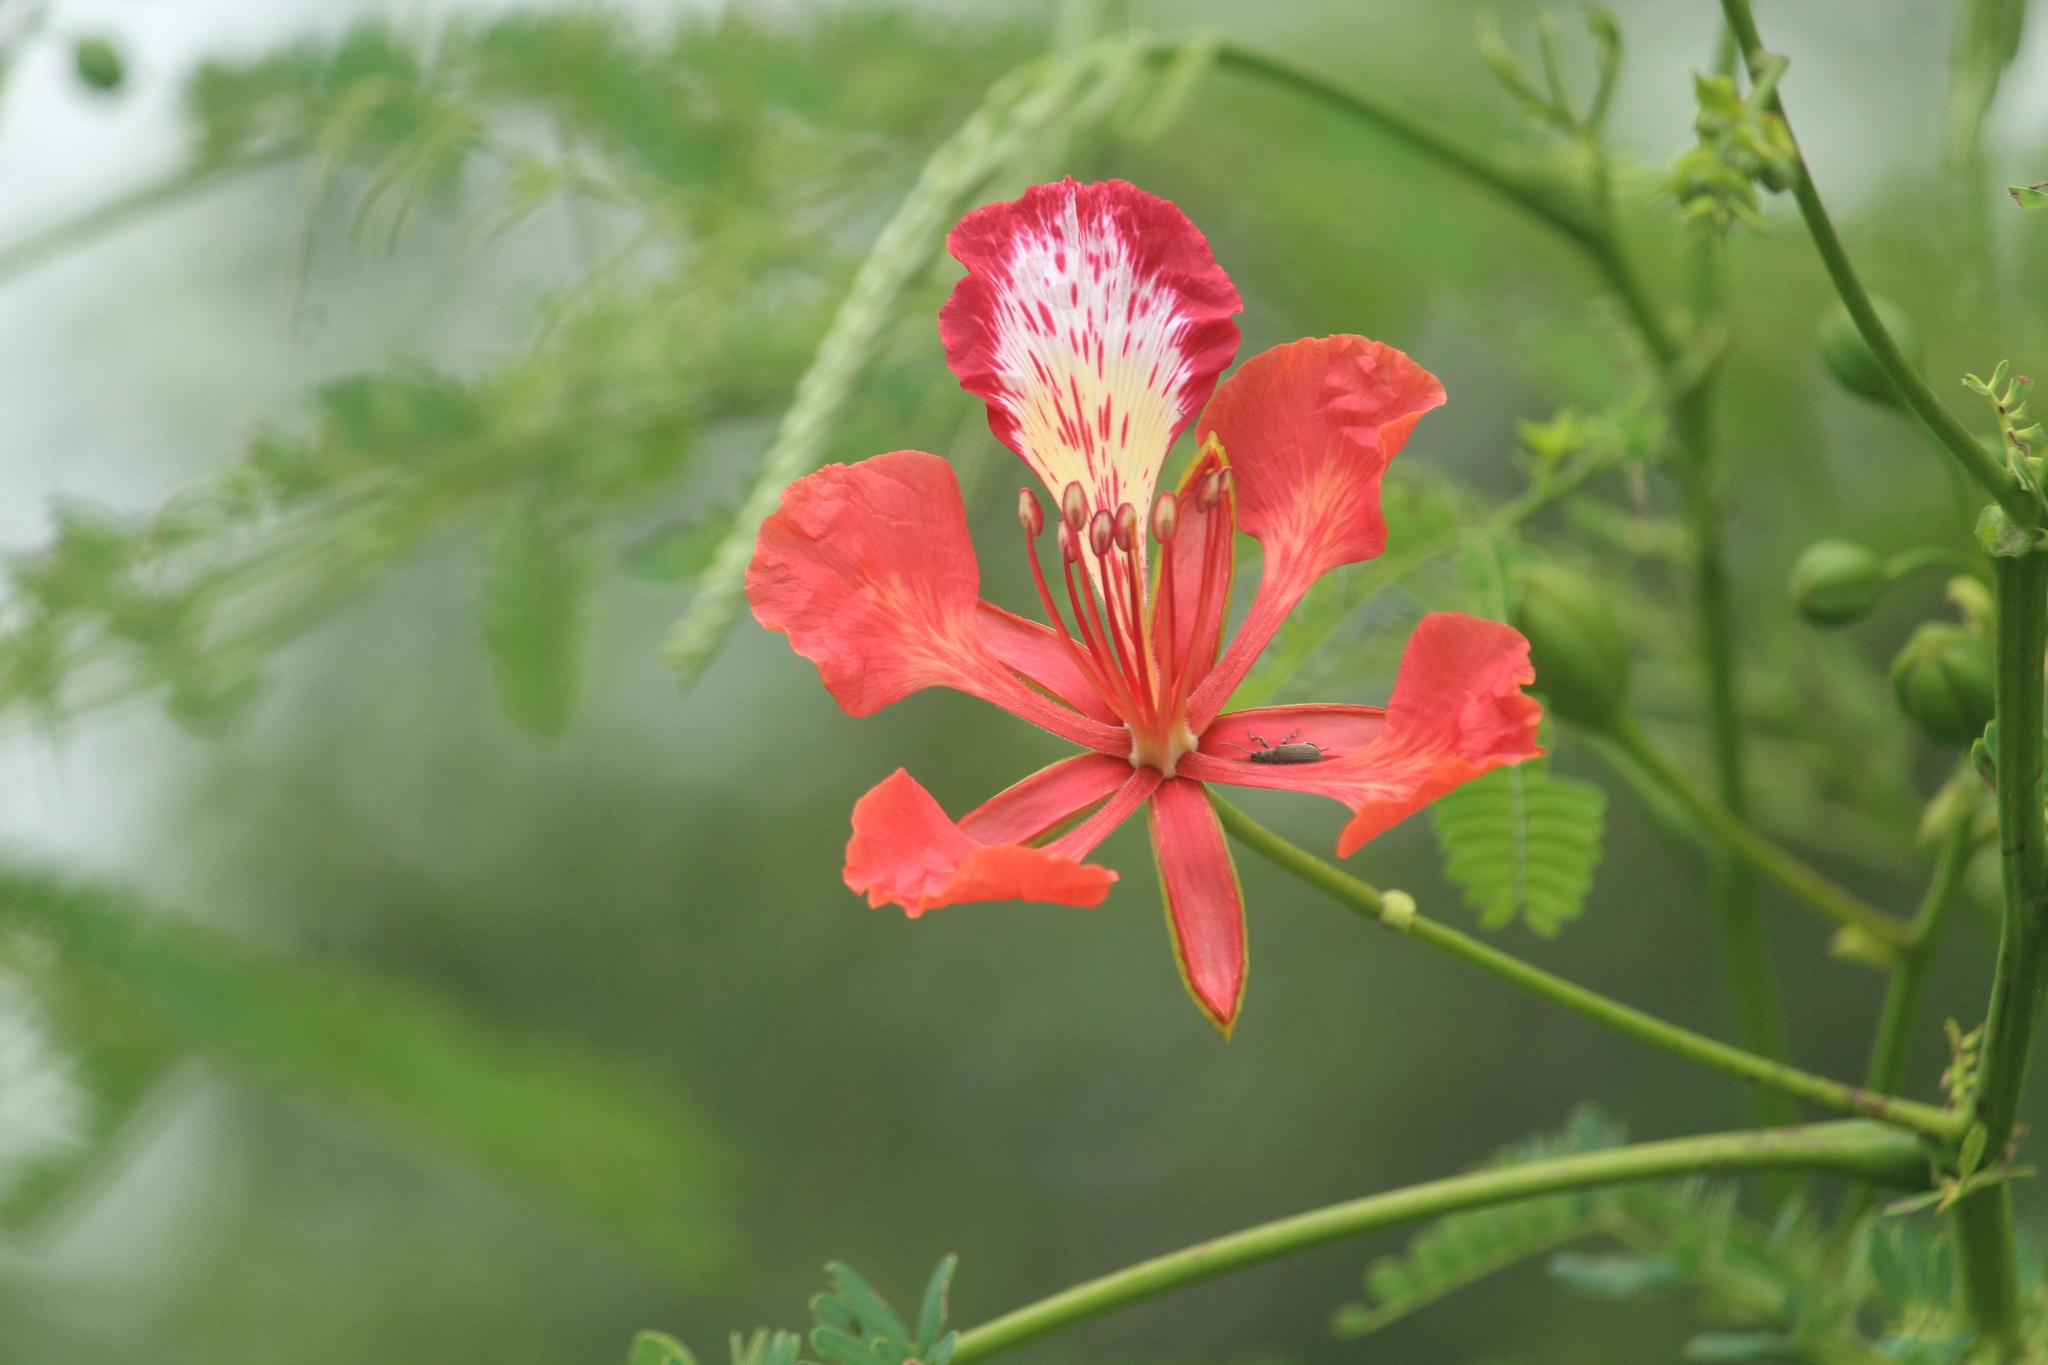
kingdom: Plantae
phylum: Tracheophyta
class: Magnoliopsida
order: Fabales
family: Fabaceae
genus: Delonix
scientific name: Delonix regia
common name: Royal poinciana
